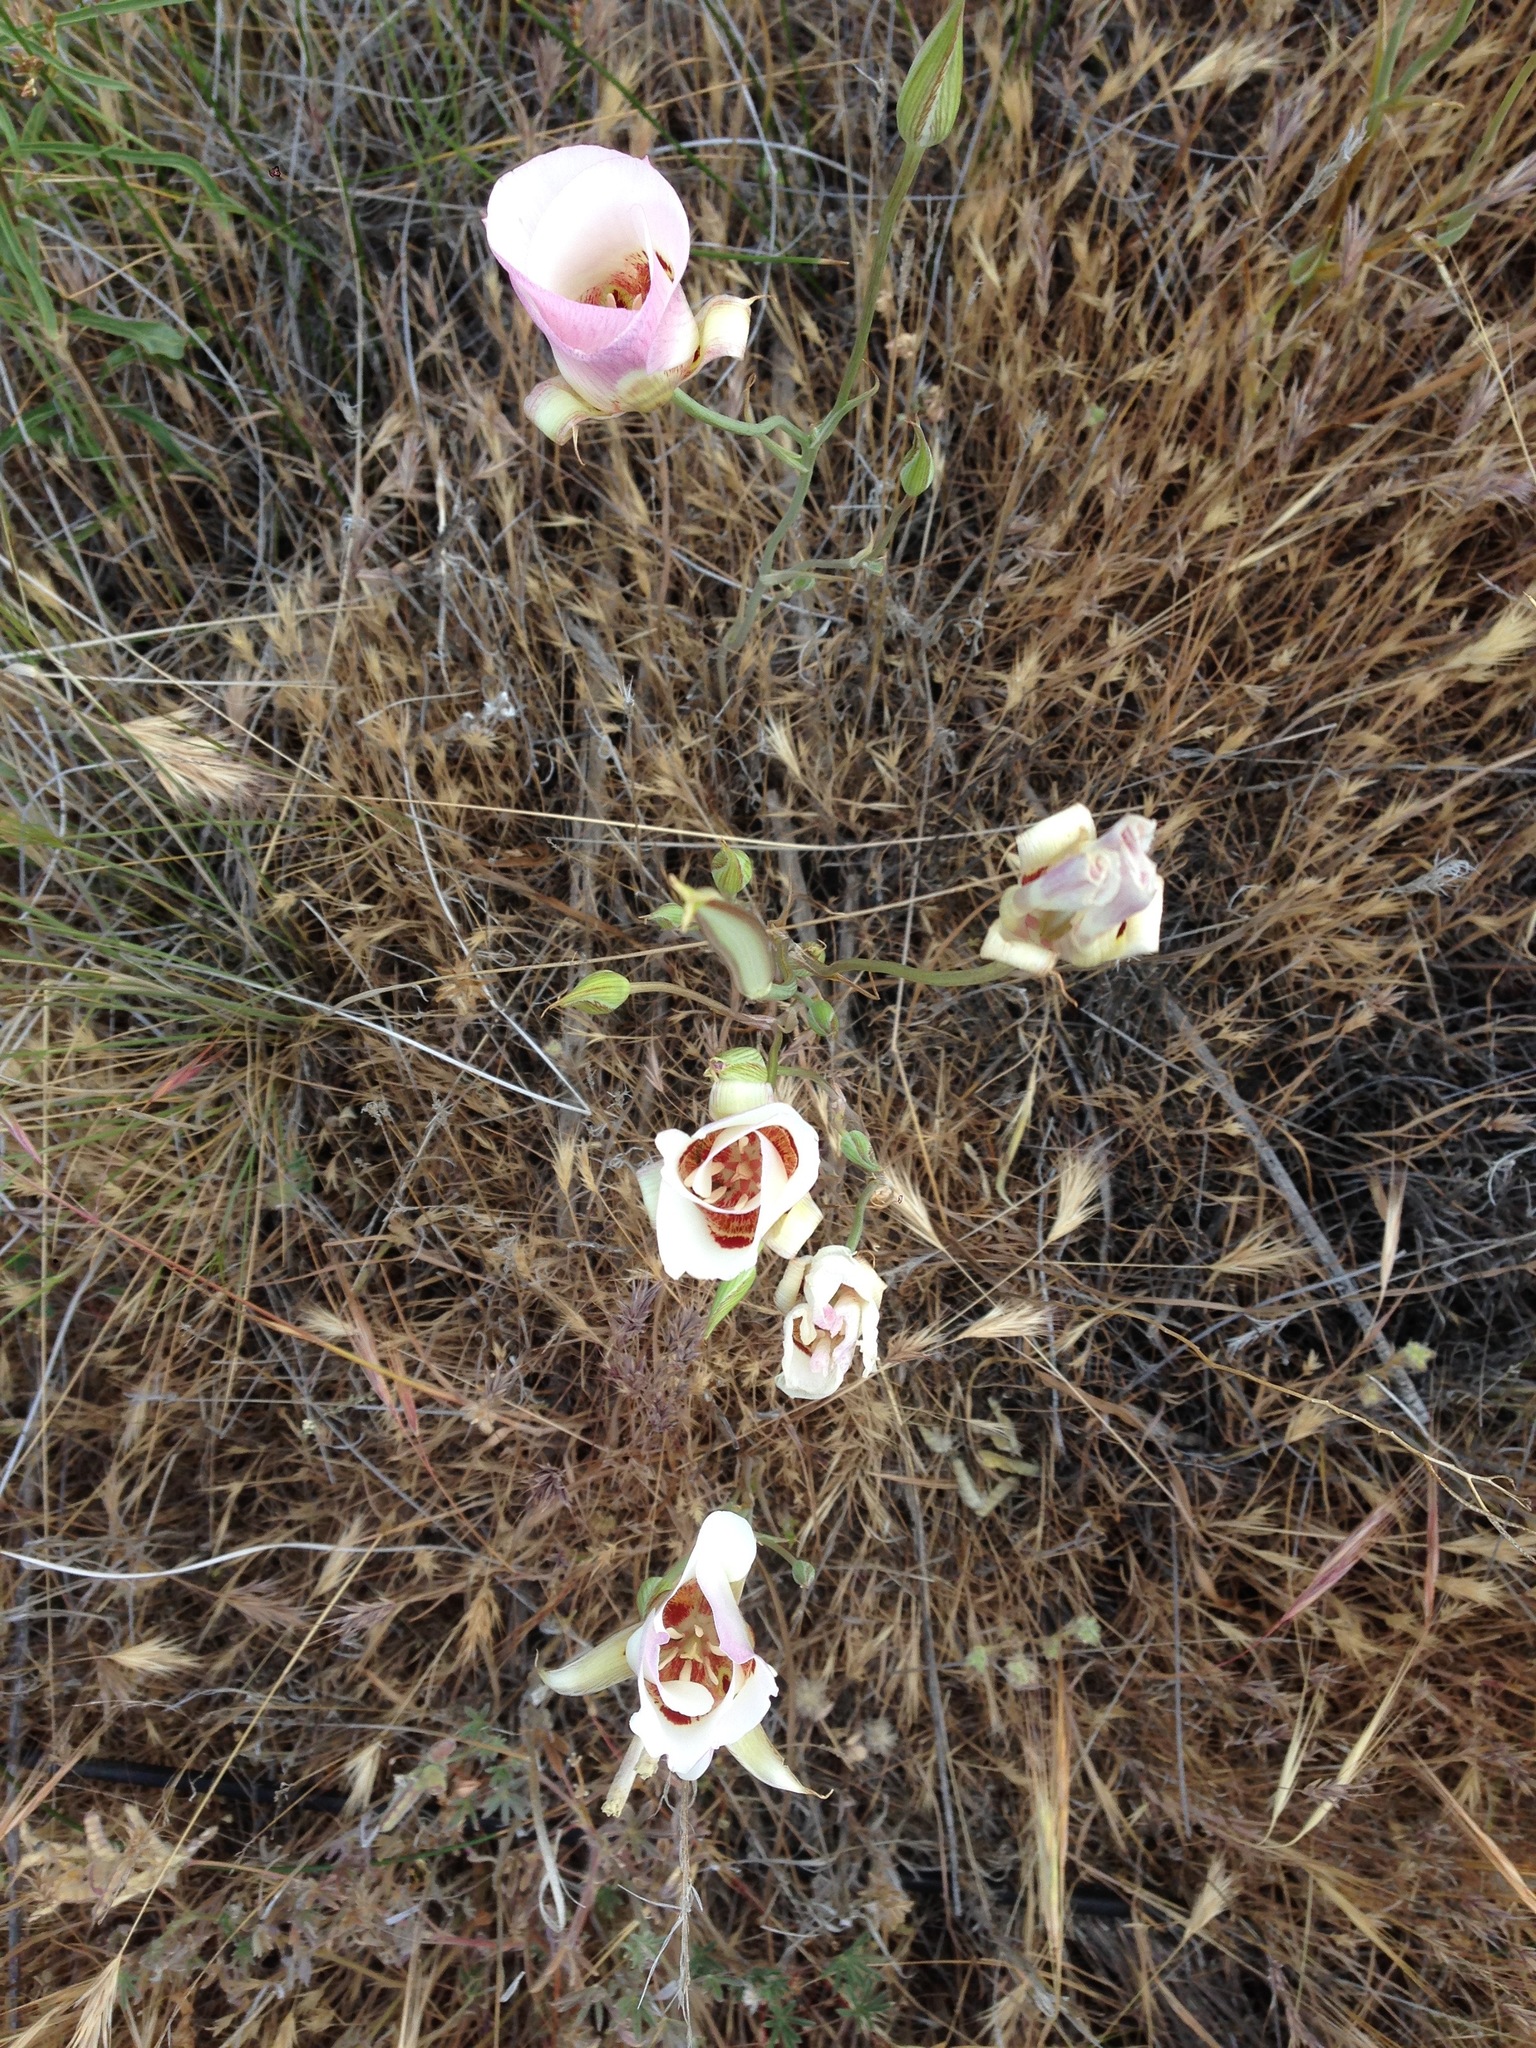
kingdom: Plantae
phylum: Tracheophyta
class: Liliopsida
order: Liliales
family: Liliaceae
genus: Calochortus
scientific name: Calochortus venustus
